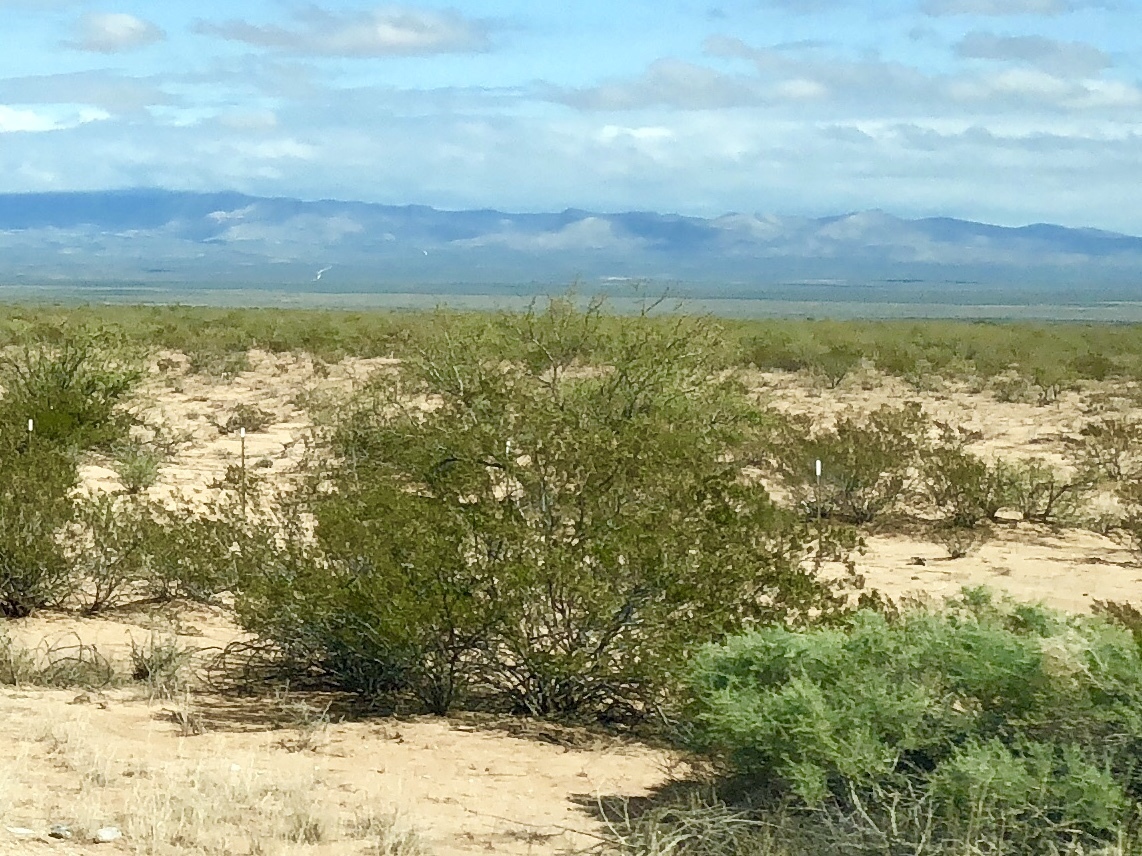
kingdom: Plantae
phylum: Tracheophyta
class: Magnoliopsida
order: Zygophyllales
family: Zygophyllaceae
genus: Larrea
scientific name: Larrea tridentata
